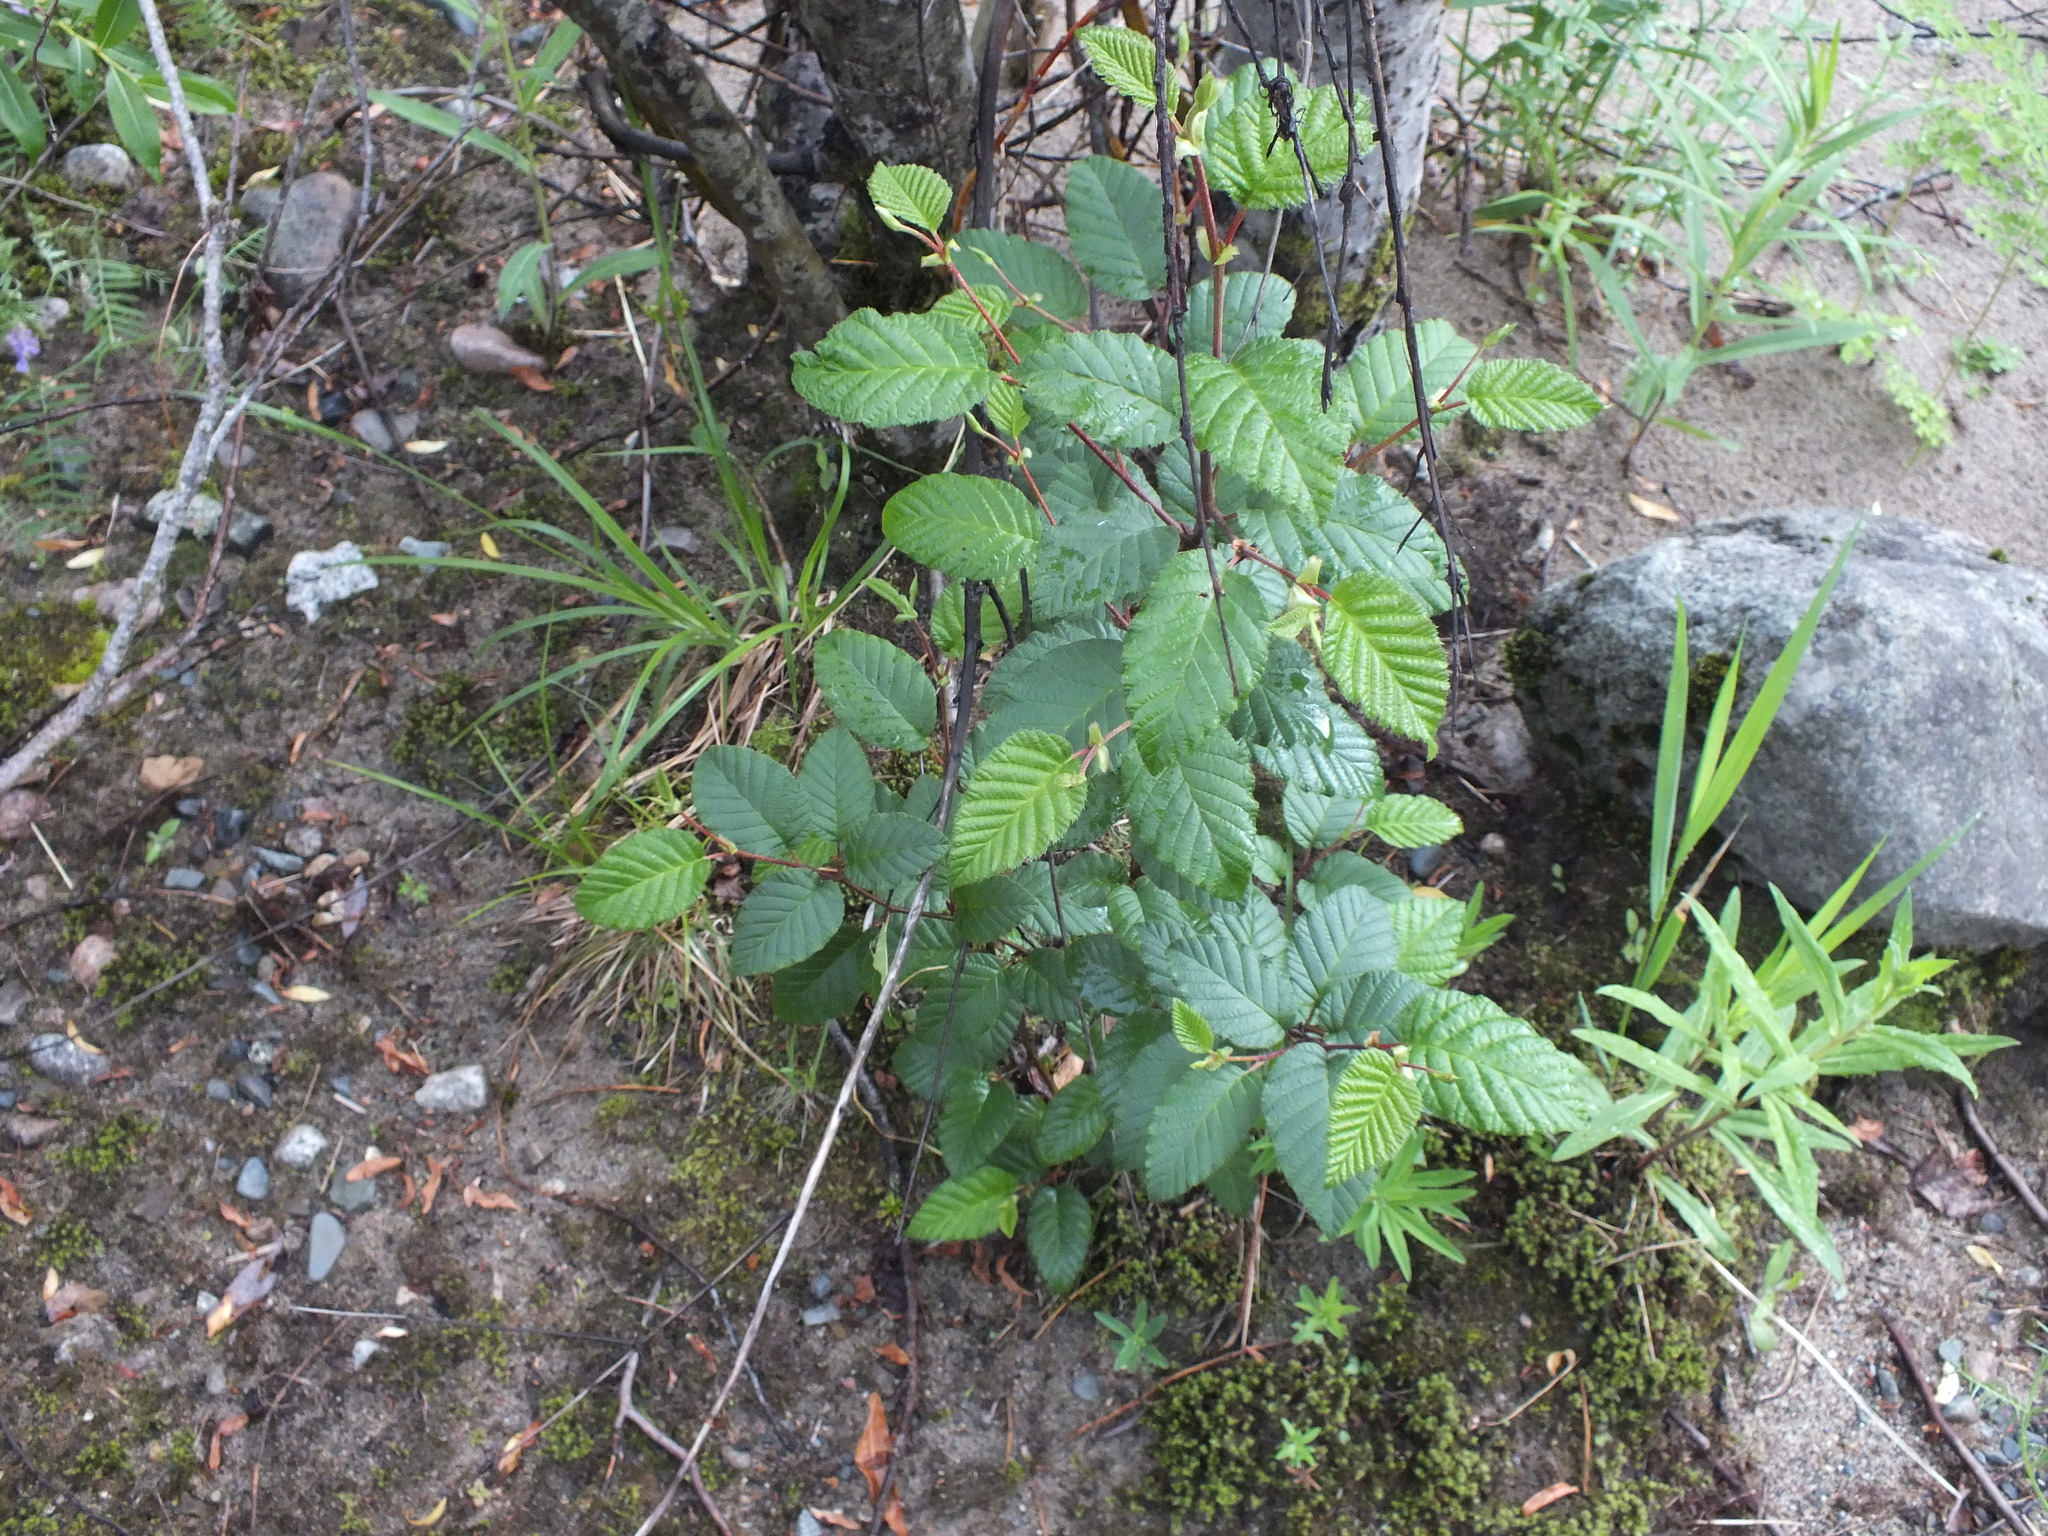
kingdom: Plantae
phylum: Tracheophyta
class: Magnoliopsida
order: Fagales
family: Betulaceae
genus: Alnus
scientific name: Alnus alnobetula
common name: Green alder
